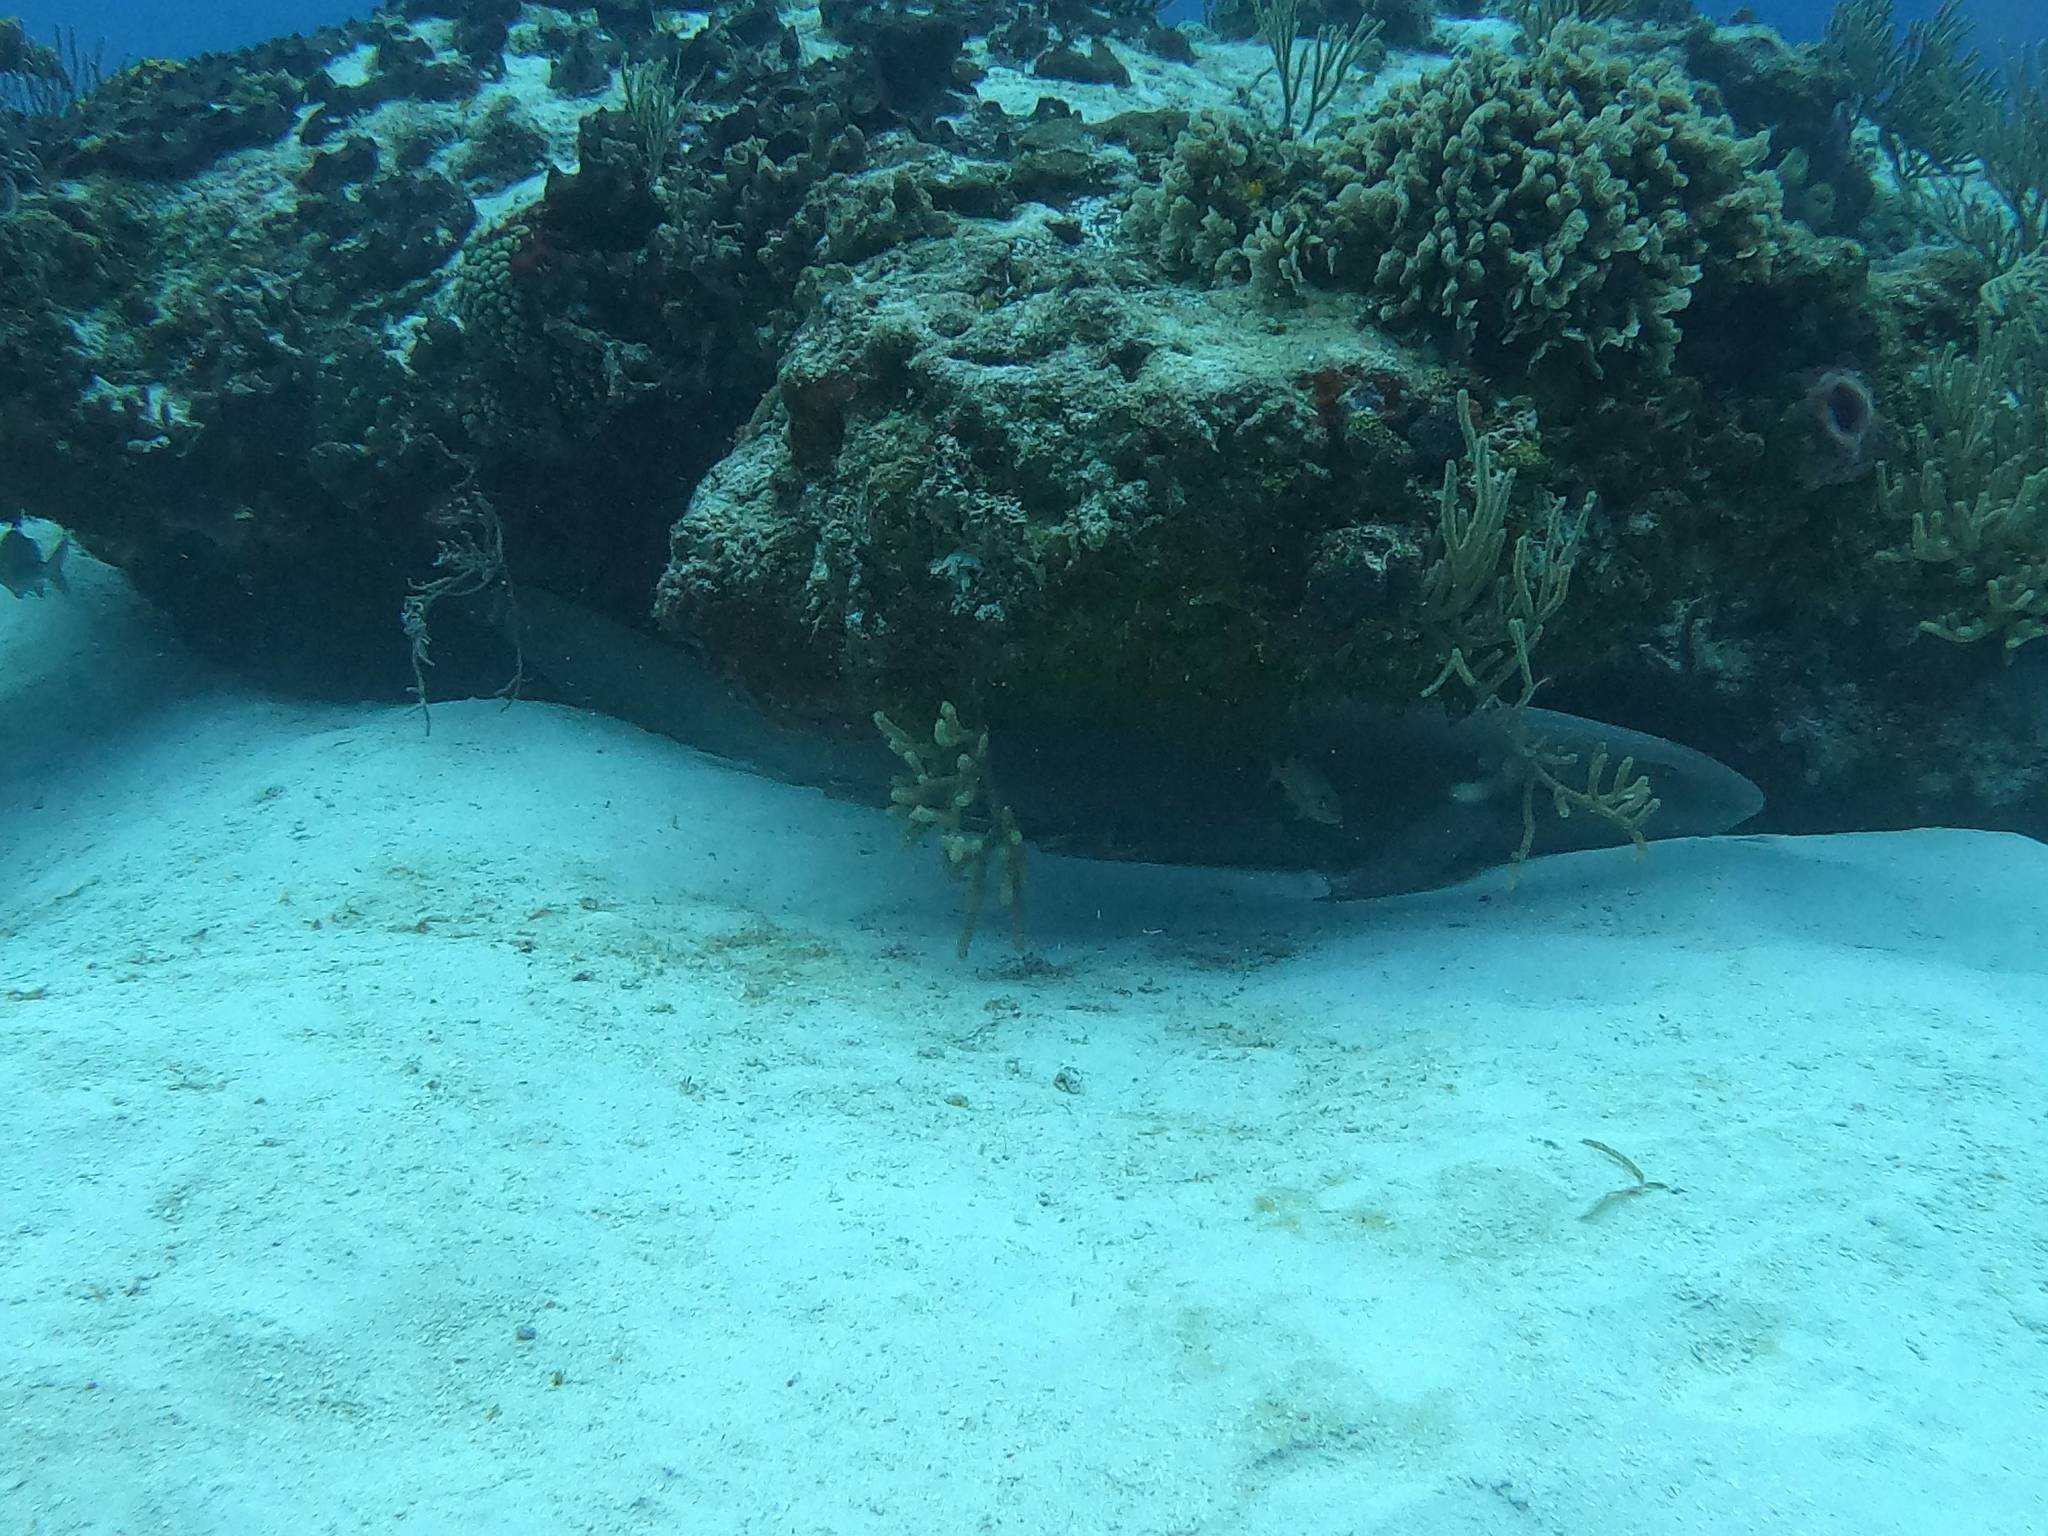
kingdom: Animalia
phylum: Chordata
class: Elasmobranchii
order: Orectolobiformes
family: Ginglymostomatidae
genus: Ginglymostoma
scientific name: Ginglymostoma cirratum
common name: Nurse shark
